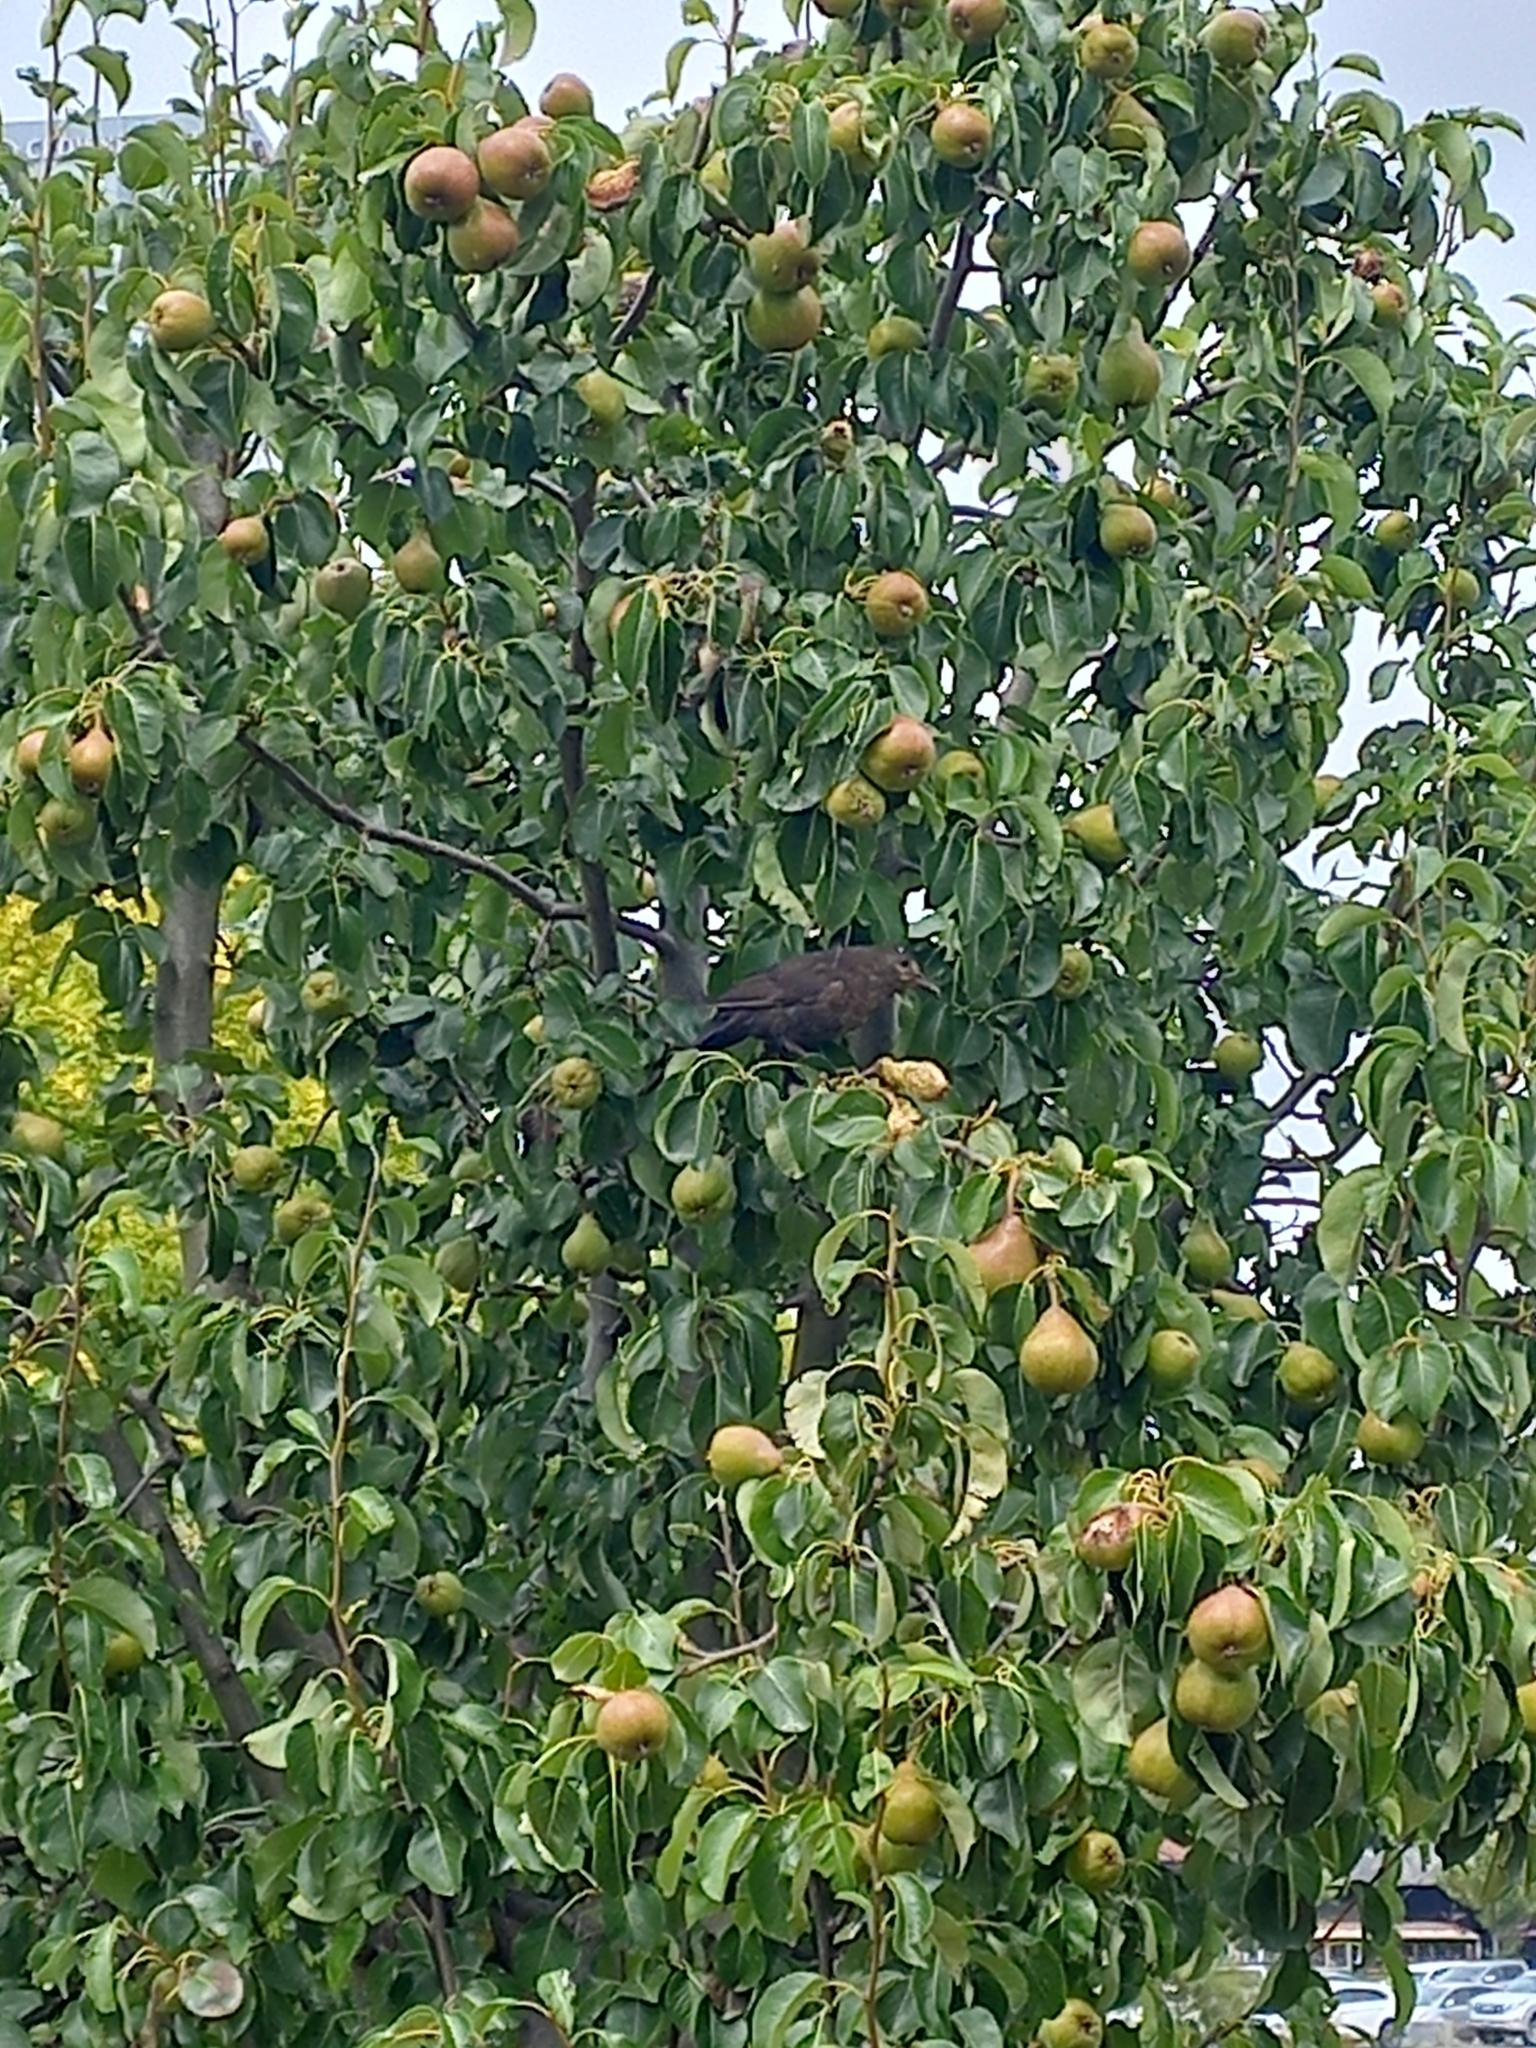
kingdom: Animalia
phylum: Chordata
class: Aves
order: Passeriformes
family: Turdidae
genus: Turdus
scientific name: Turdus merula
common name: Common blackbird
